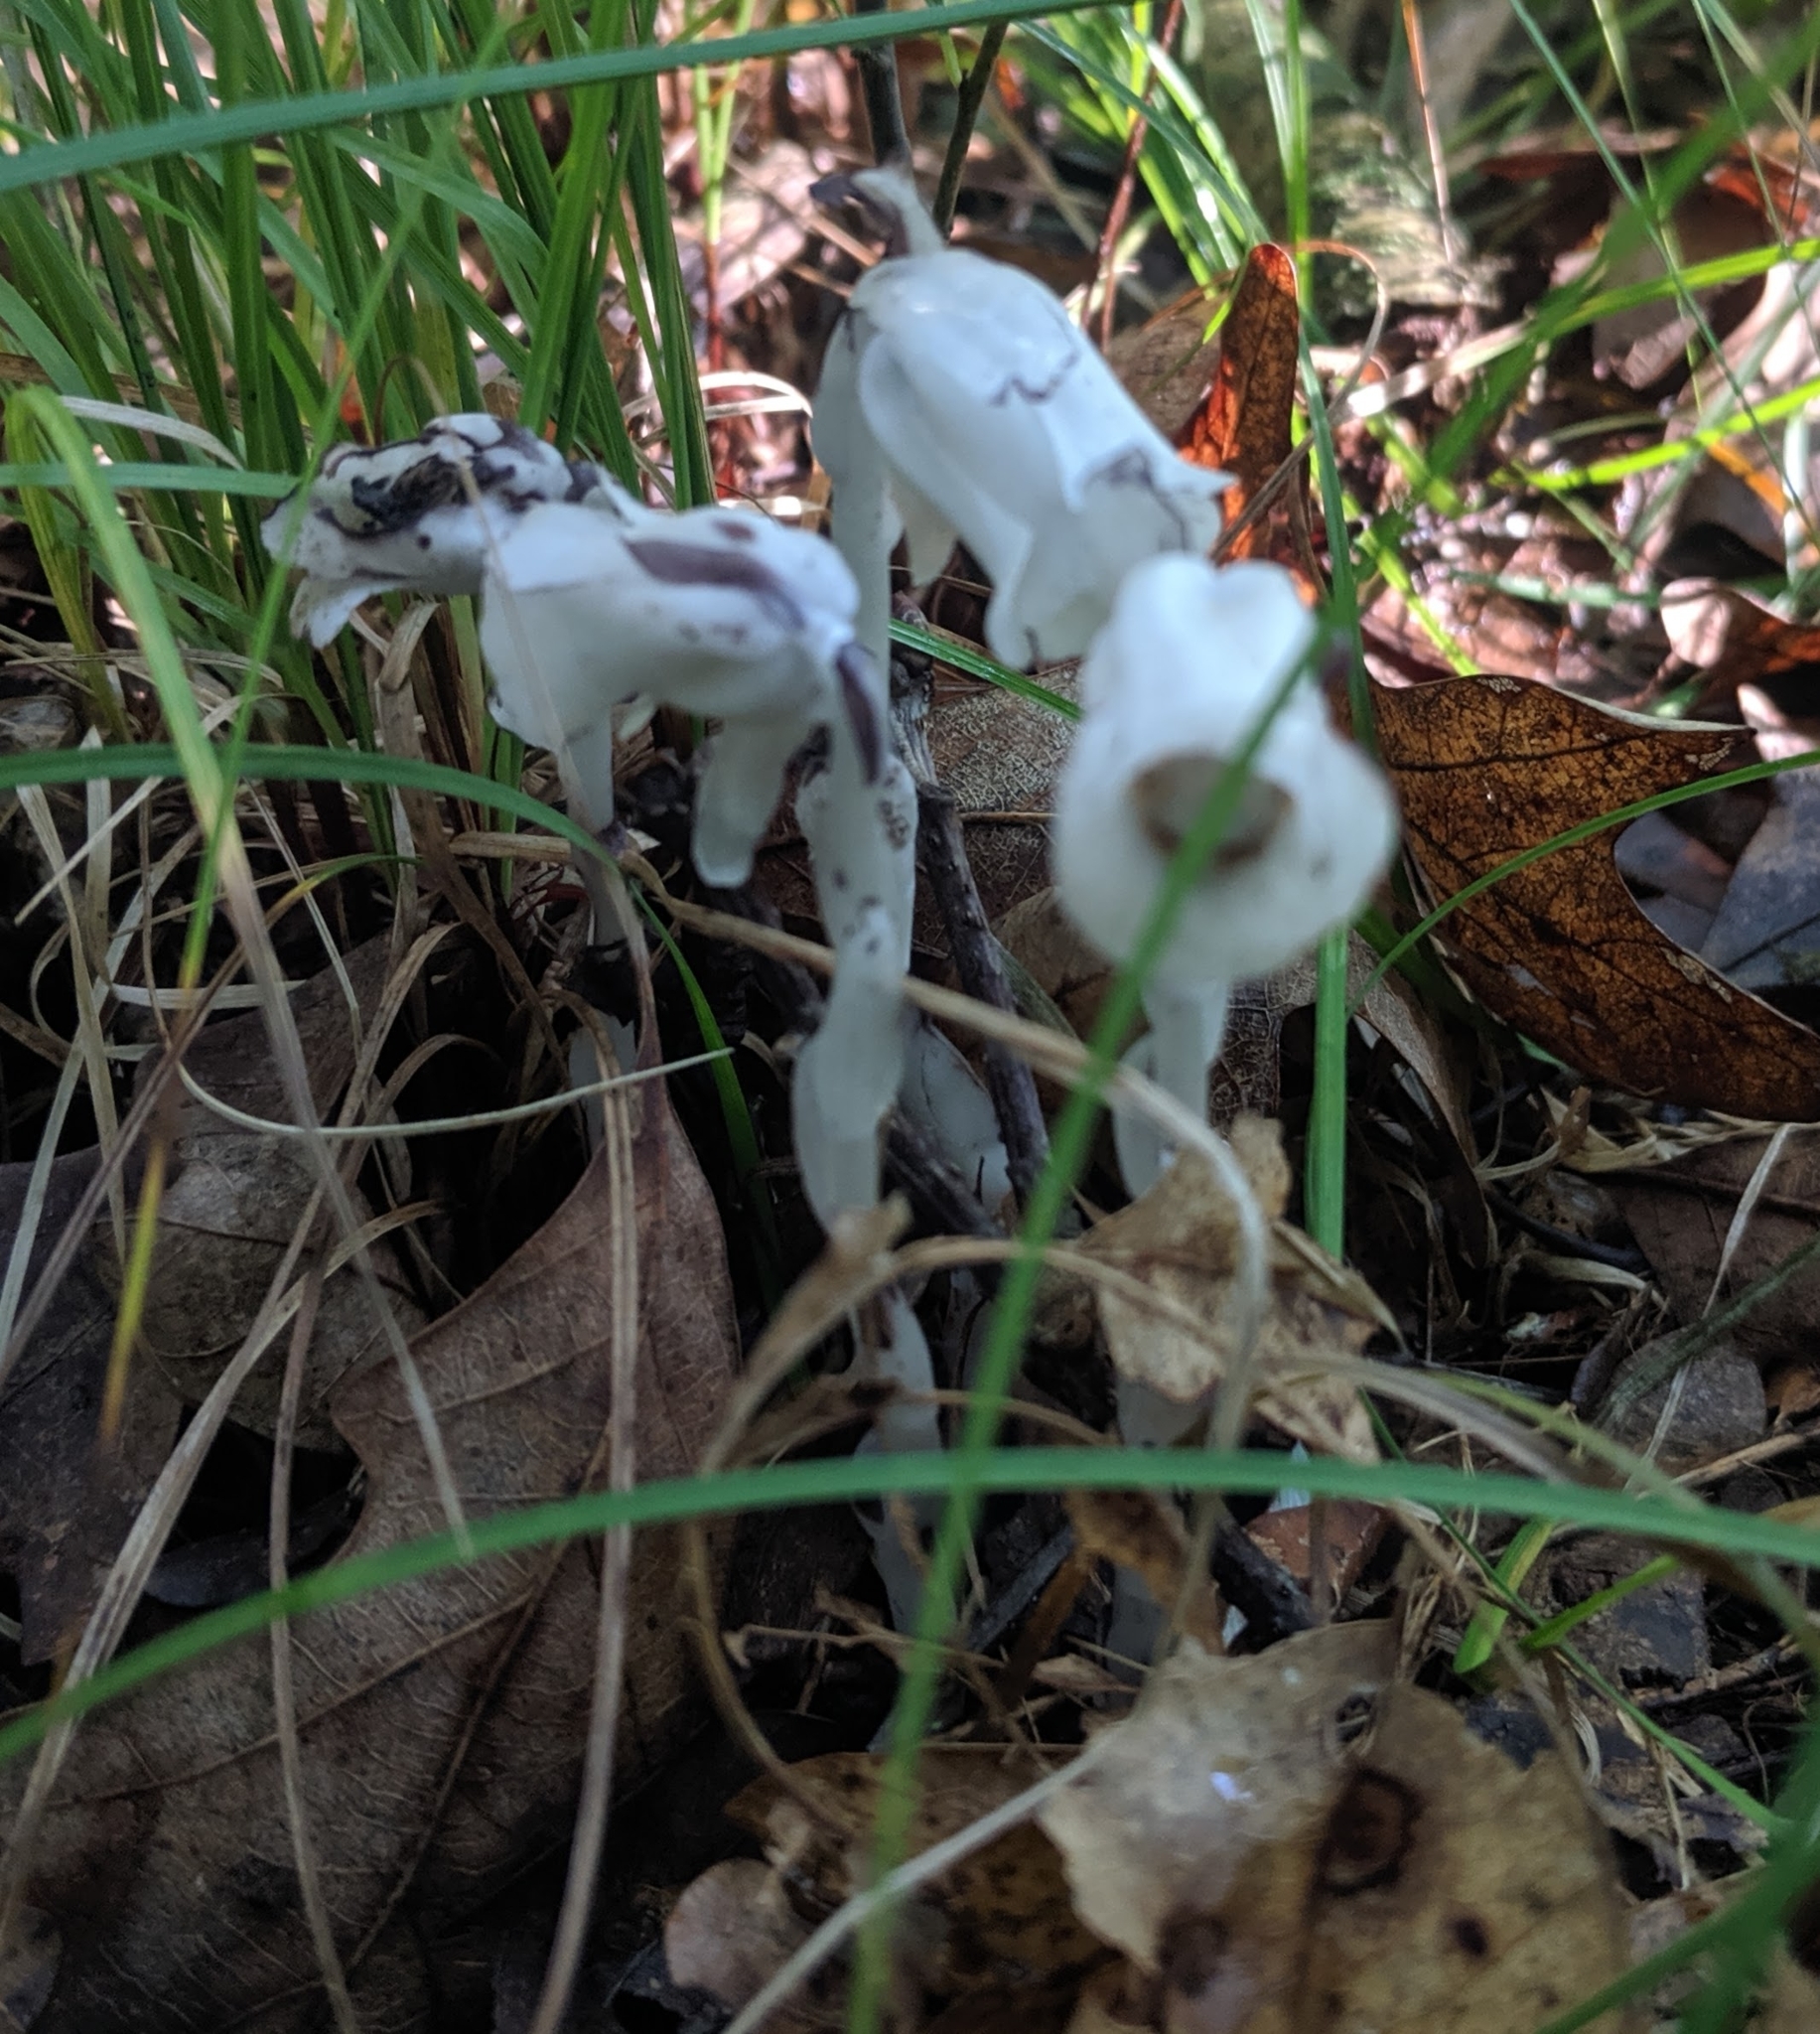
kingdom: Plantae
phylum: Tracheophyta
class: Magnoliopsida
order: Ericales
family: Ericaceae
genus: Monotropa
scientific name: Monotropa uniflora
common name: Convulsion root
